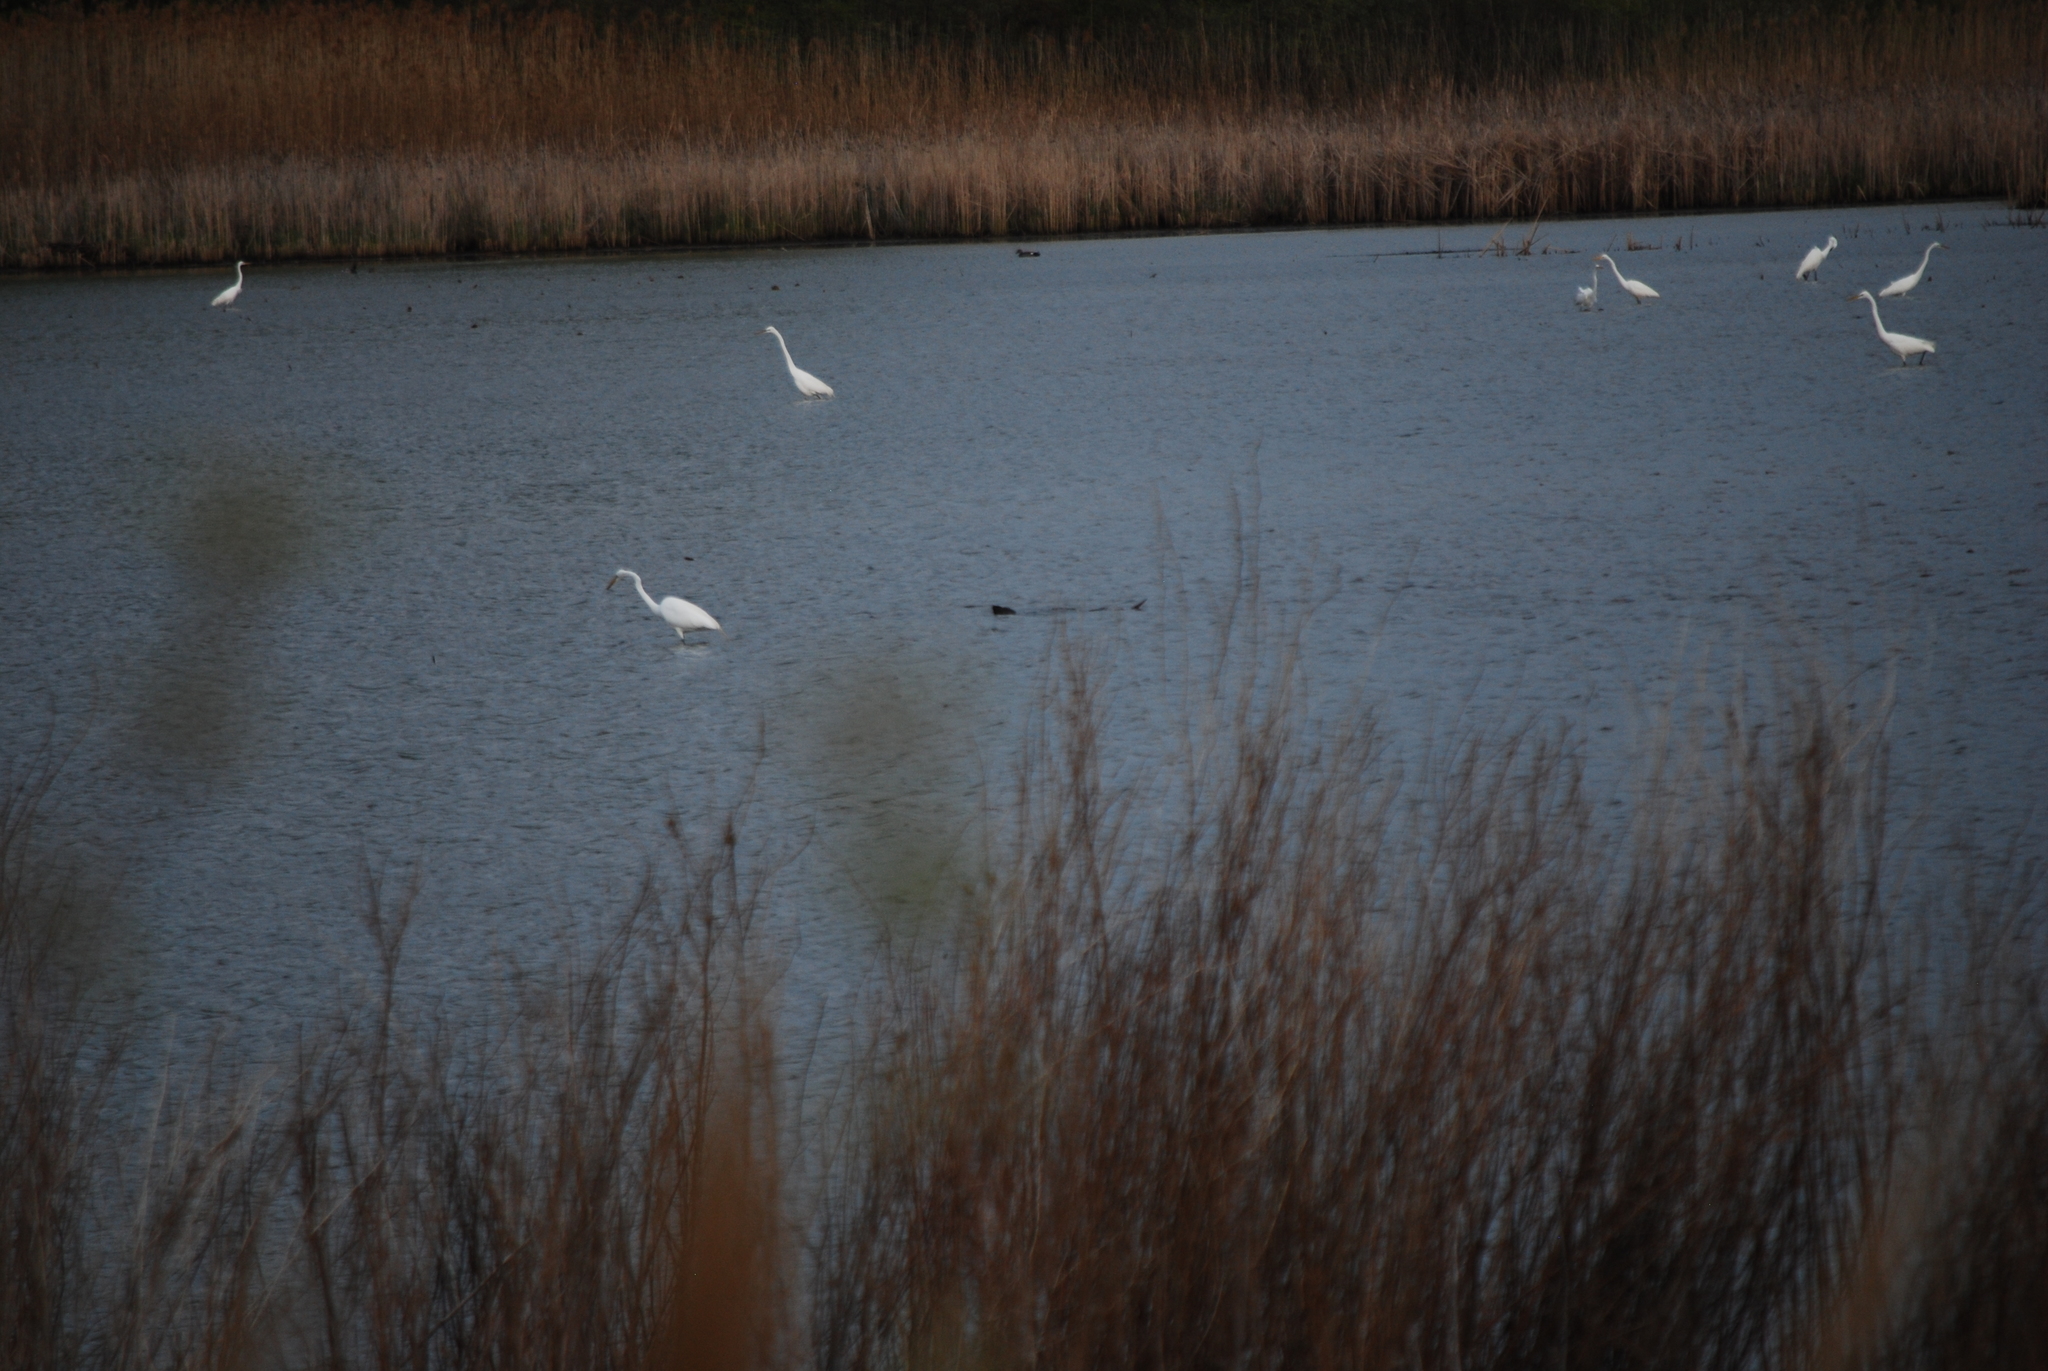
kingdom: Animalia
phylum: Chordata
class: Aves
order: Pelecaniformes
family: Ardeidae
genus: Ardea
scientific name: Ardea alba
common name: Great egret
